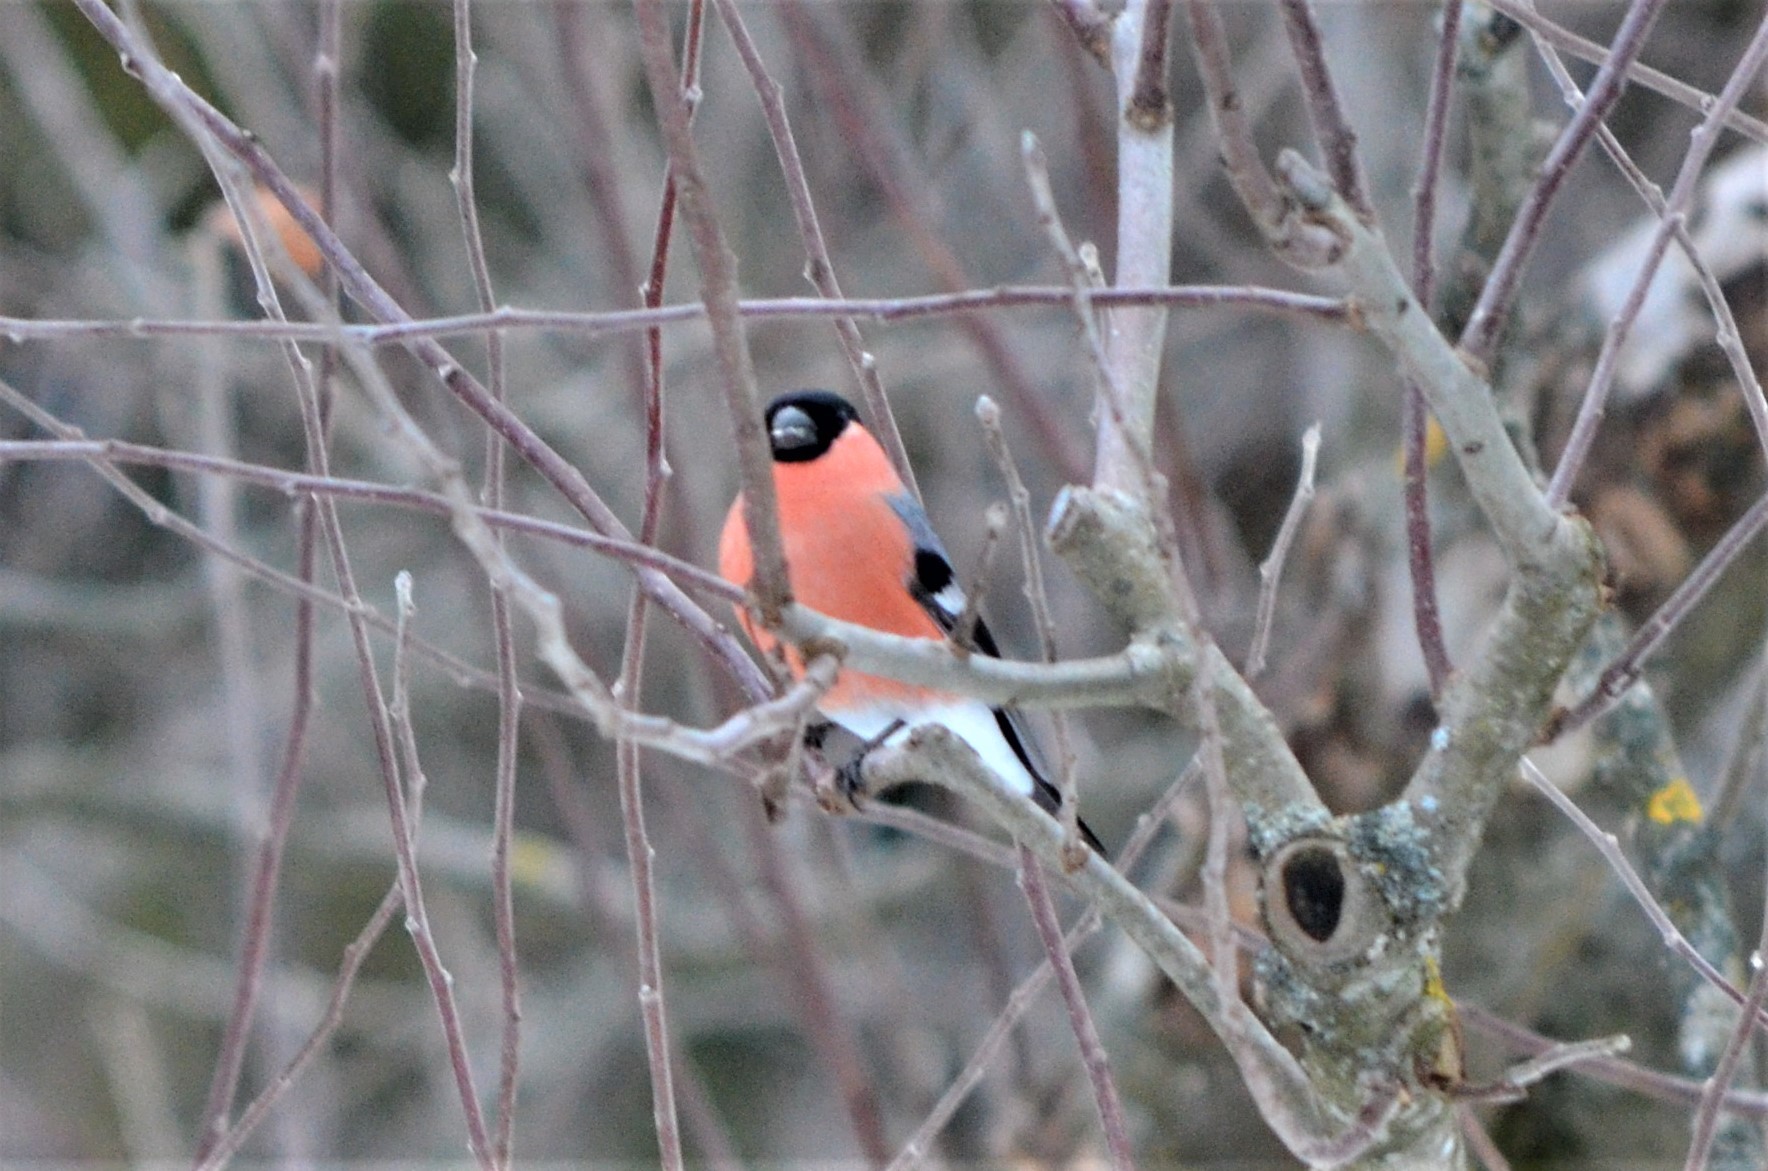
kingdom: Animalia
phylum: Chordata
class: Aves
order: Passeriformes
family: Fringillidae
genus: Pyrrhula
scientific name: Pyrrhula pyrrhula
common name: Eurasian bullfinch
